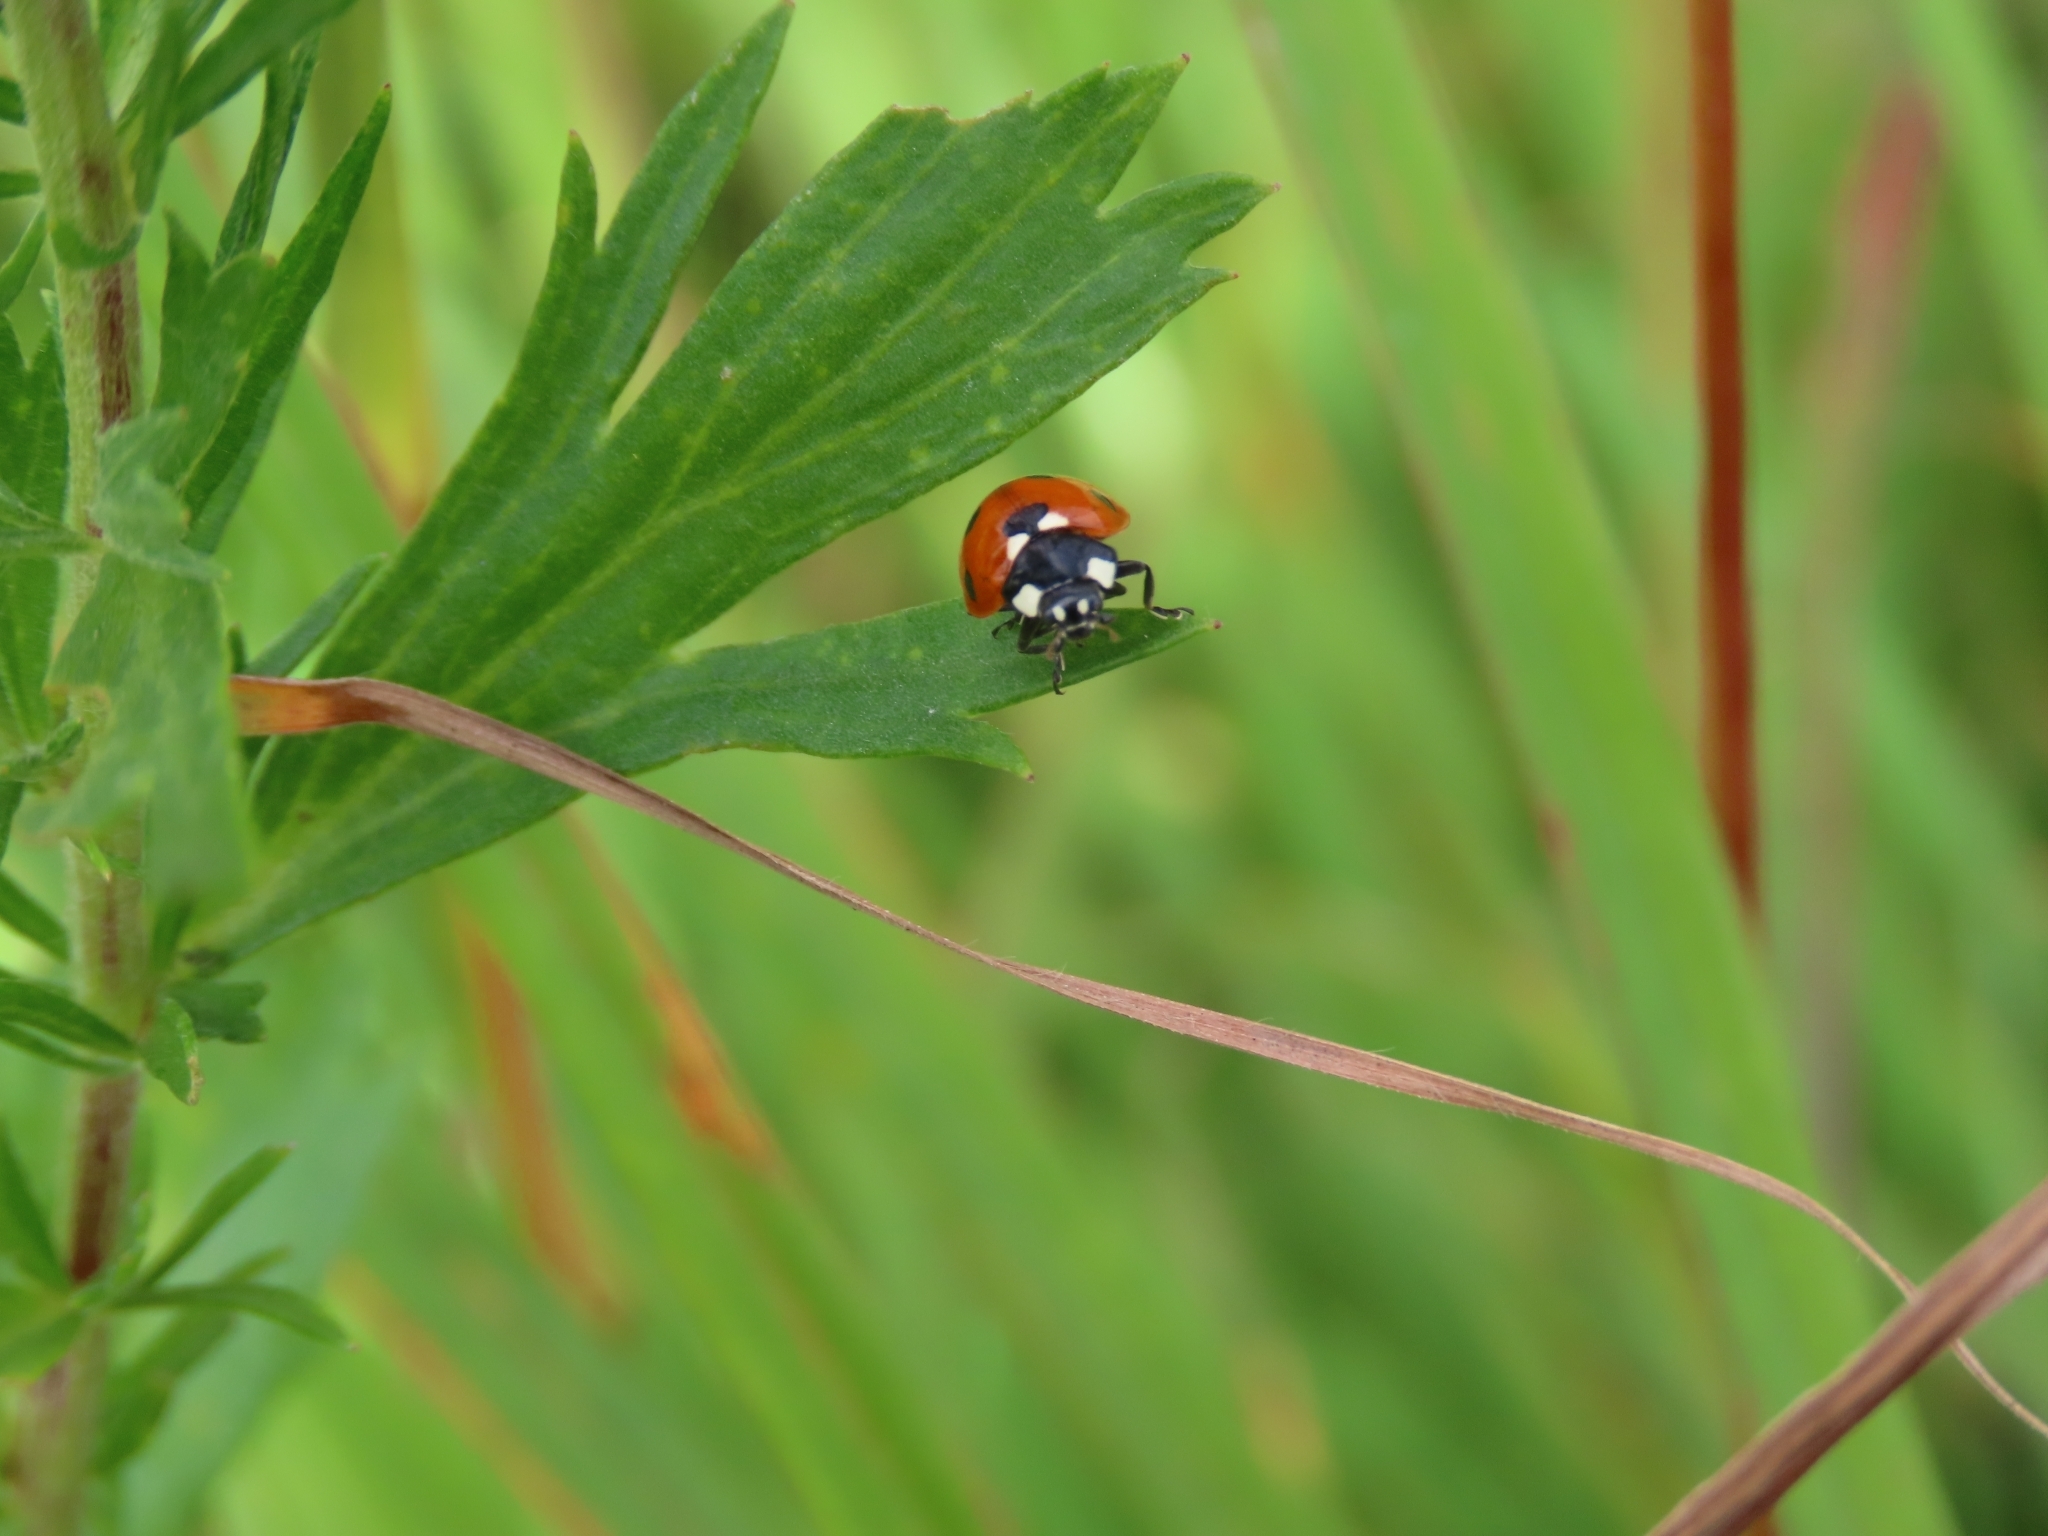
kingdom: Animalia
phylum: Arthropoda
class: Insecta
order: Coleoptera
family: Coccinellidae
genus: Coccinella
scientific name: Coccinella septempunctata
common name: Sevenspotted lady beetle
